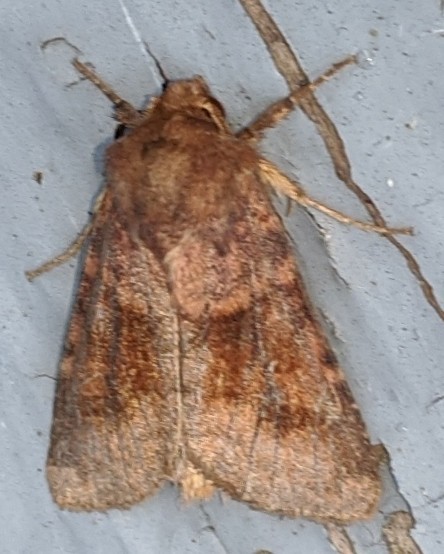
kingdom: Animalia
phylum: Arthropoda
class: Insecta
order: Lepidoptera
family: Noctuidae
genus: Nephelodes
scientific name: Nephelodes minians
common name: Bronzed cutworm
